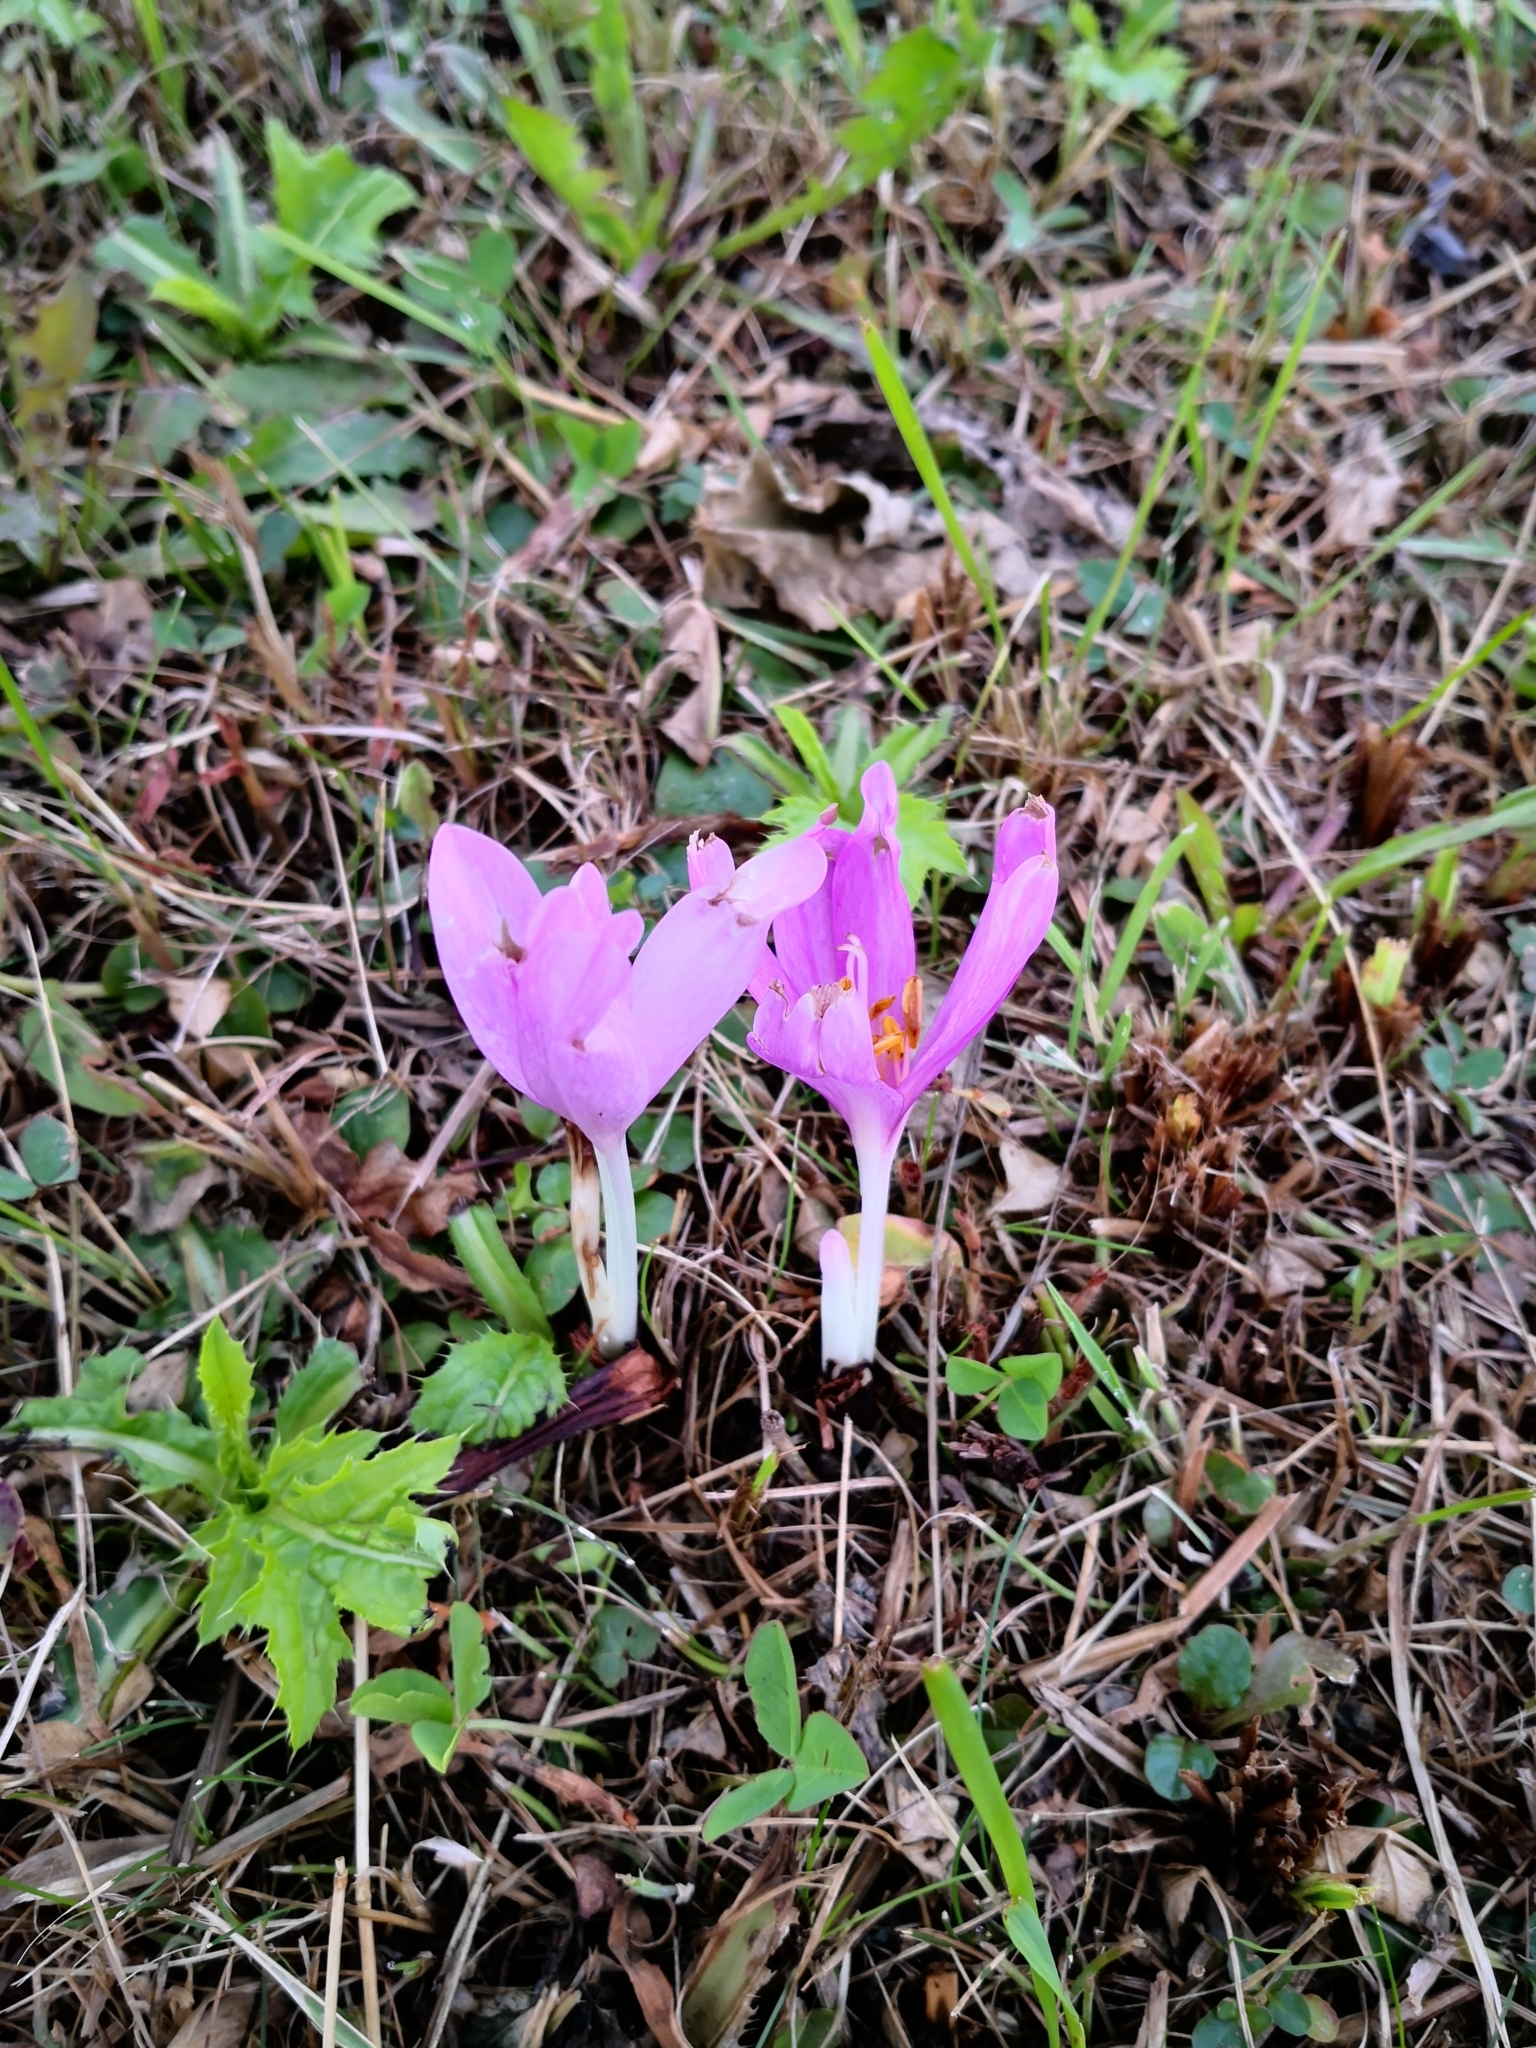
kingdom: Plantae
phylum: Tracheophyta
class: Liliopsida
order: Liliales
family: Colchicaceae
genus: Colchicum
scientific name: Colchicum autumnale
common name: Autumn crocus
